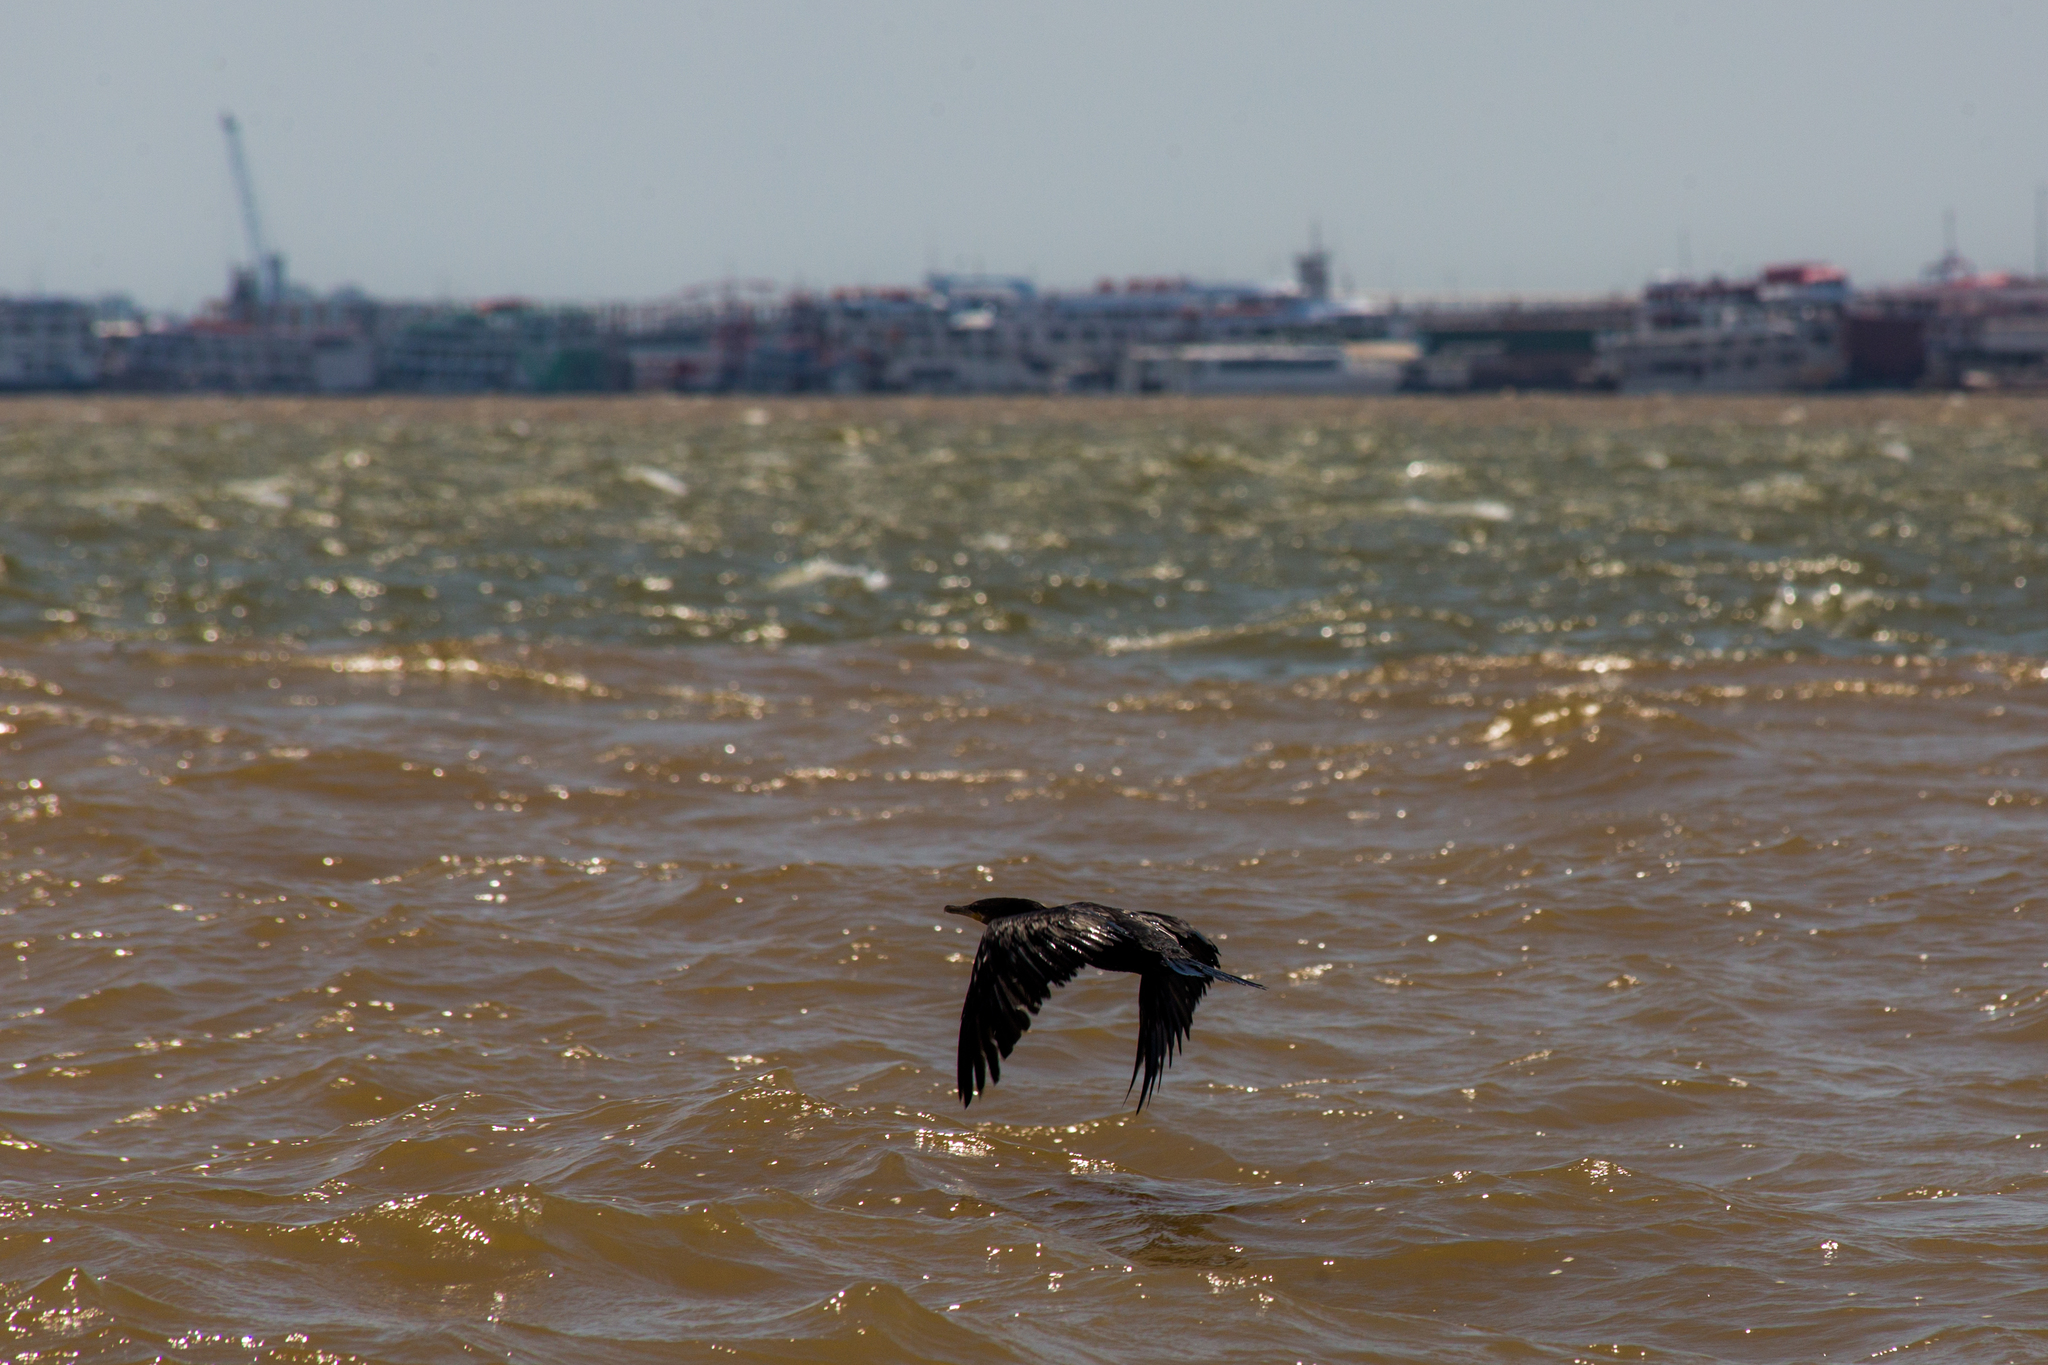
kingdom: Animalia
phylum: Chordata
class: Aves
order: Suliformes
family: Phalacrocoracidae
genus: Phalacrocorax
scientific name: Phalacrocorax brasilianus
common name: Neotropic cormorant
